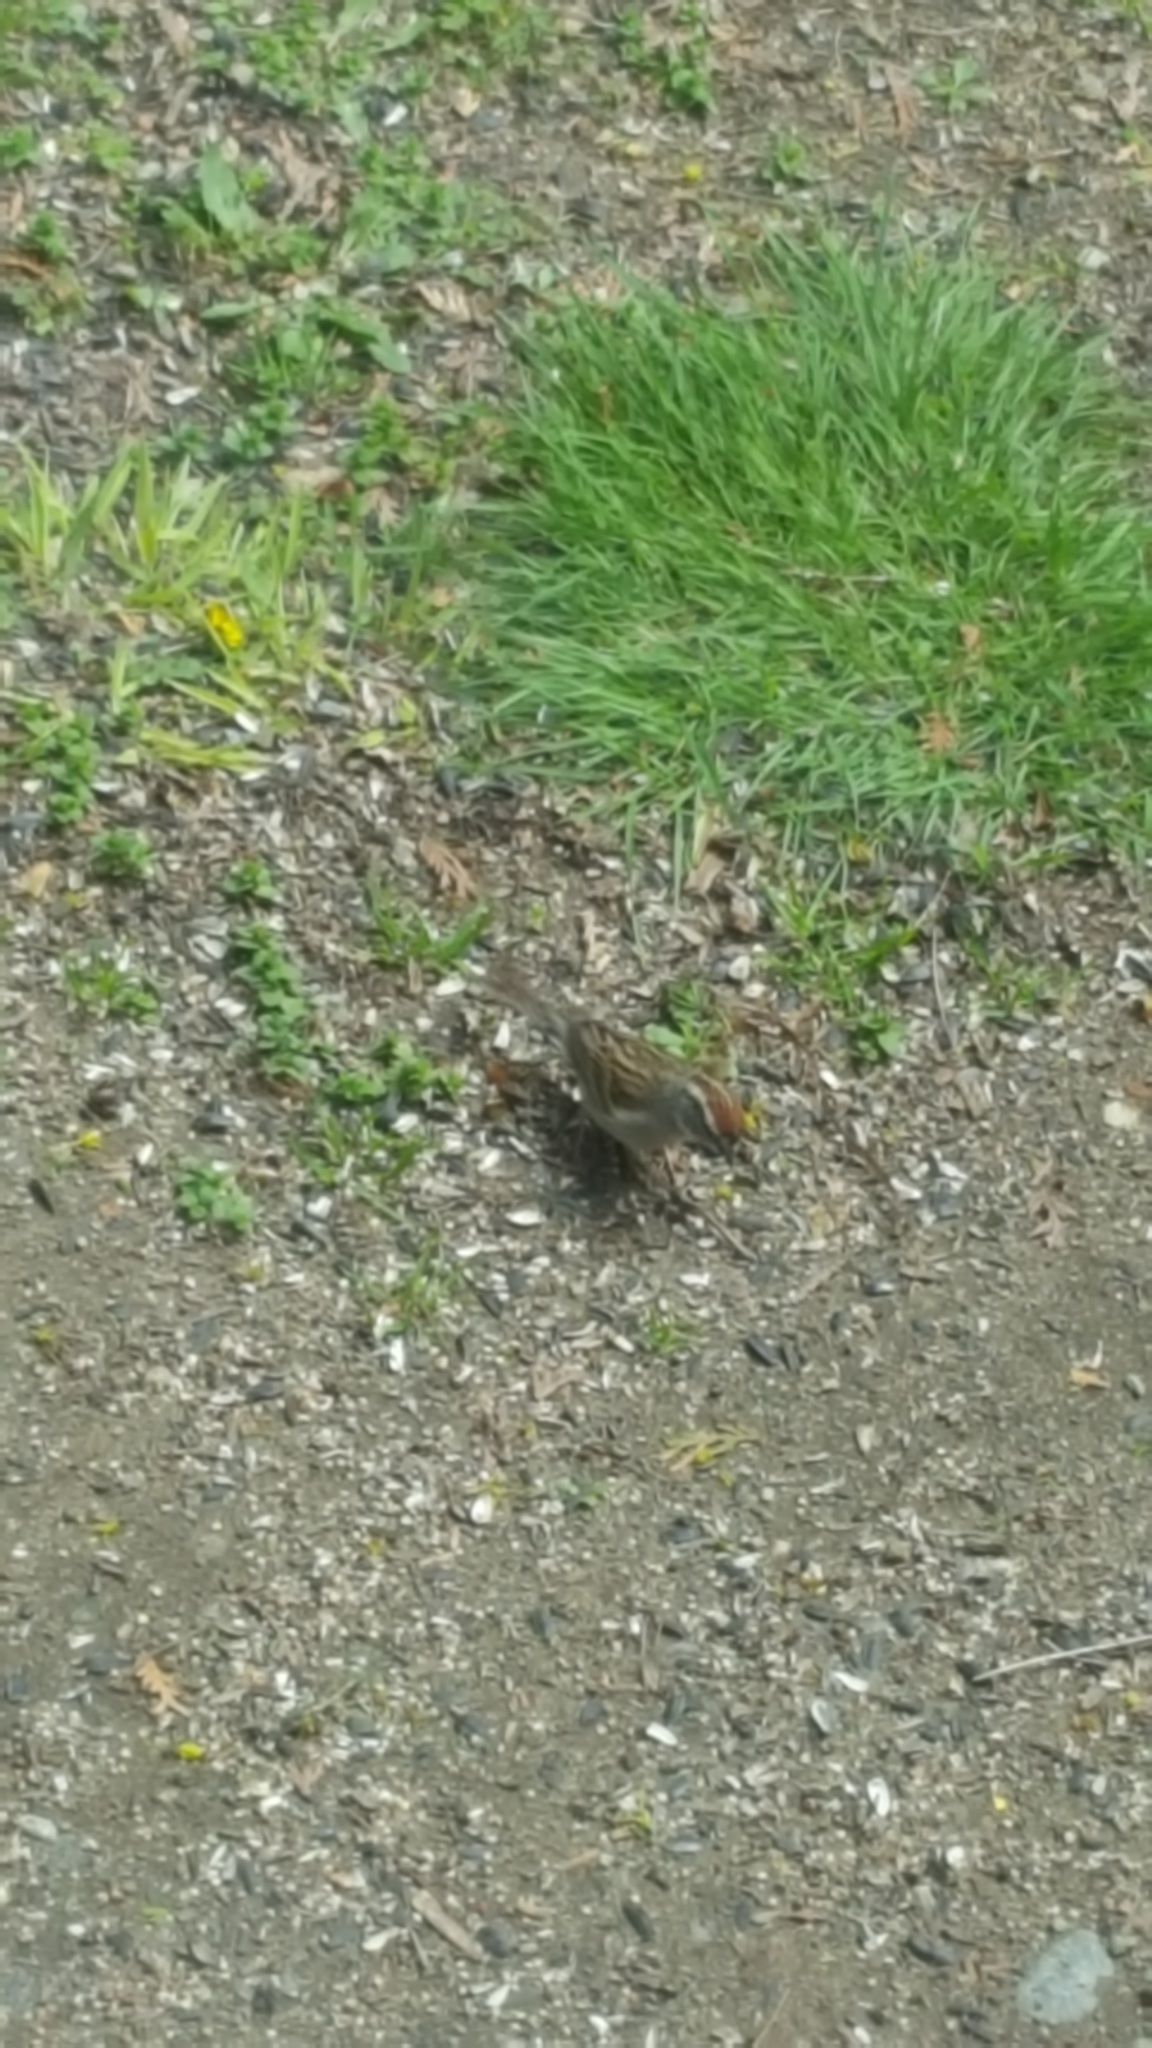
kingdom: Animalia
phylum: Chordata
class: Aves
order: Passeriformes
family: Passerellidae
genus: Spizella
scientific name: Spizella passerina
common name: Chipping sparrow
